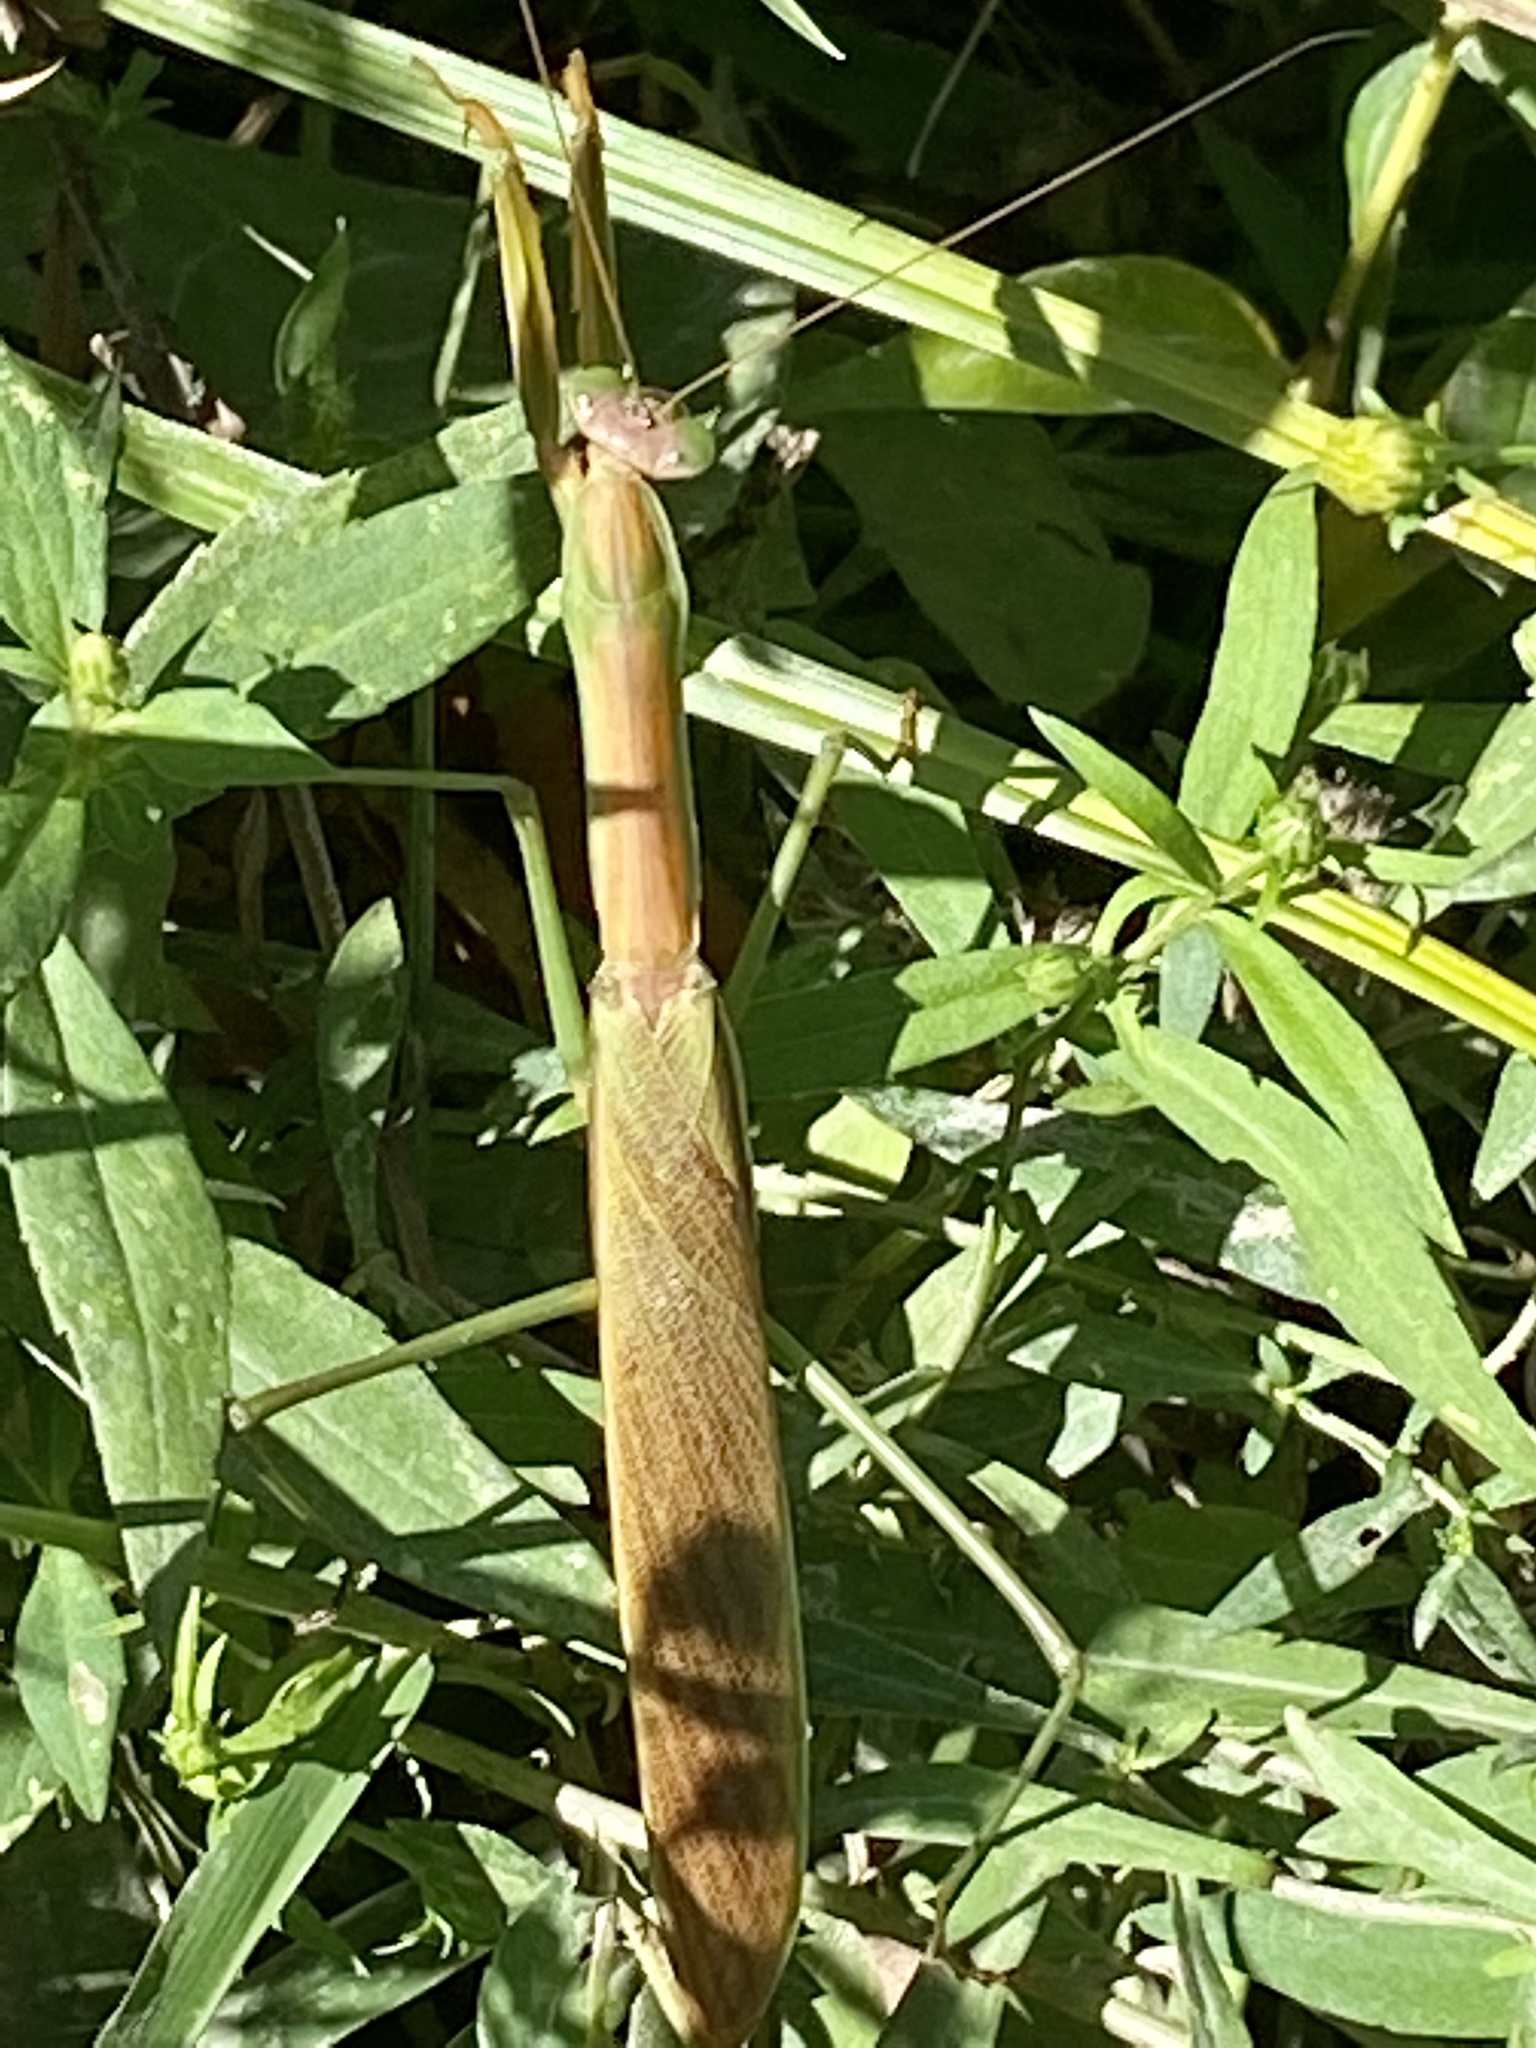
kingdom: Animalia
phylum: Arthropoda
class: Insecta
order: Mantodea
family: Mantidae
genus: Tenodera
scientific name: Tenodera sinensis
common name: Chinese mantis
